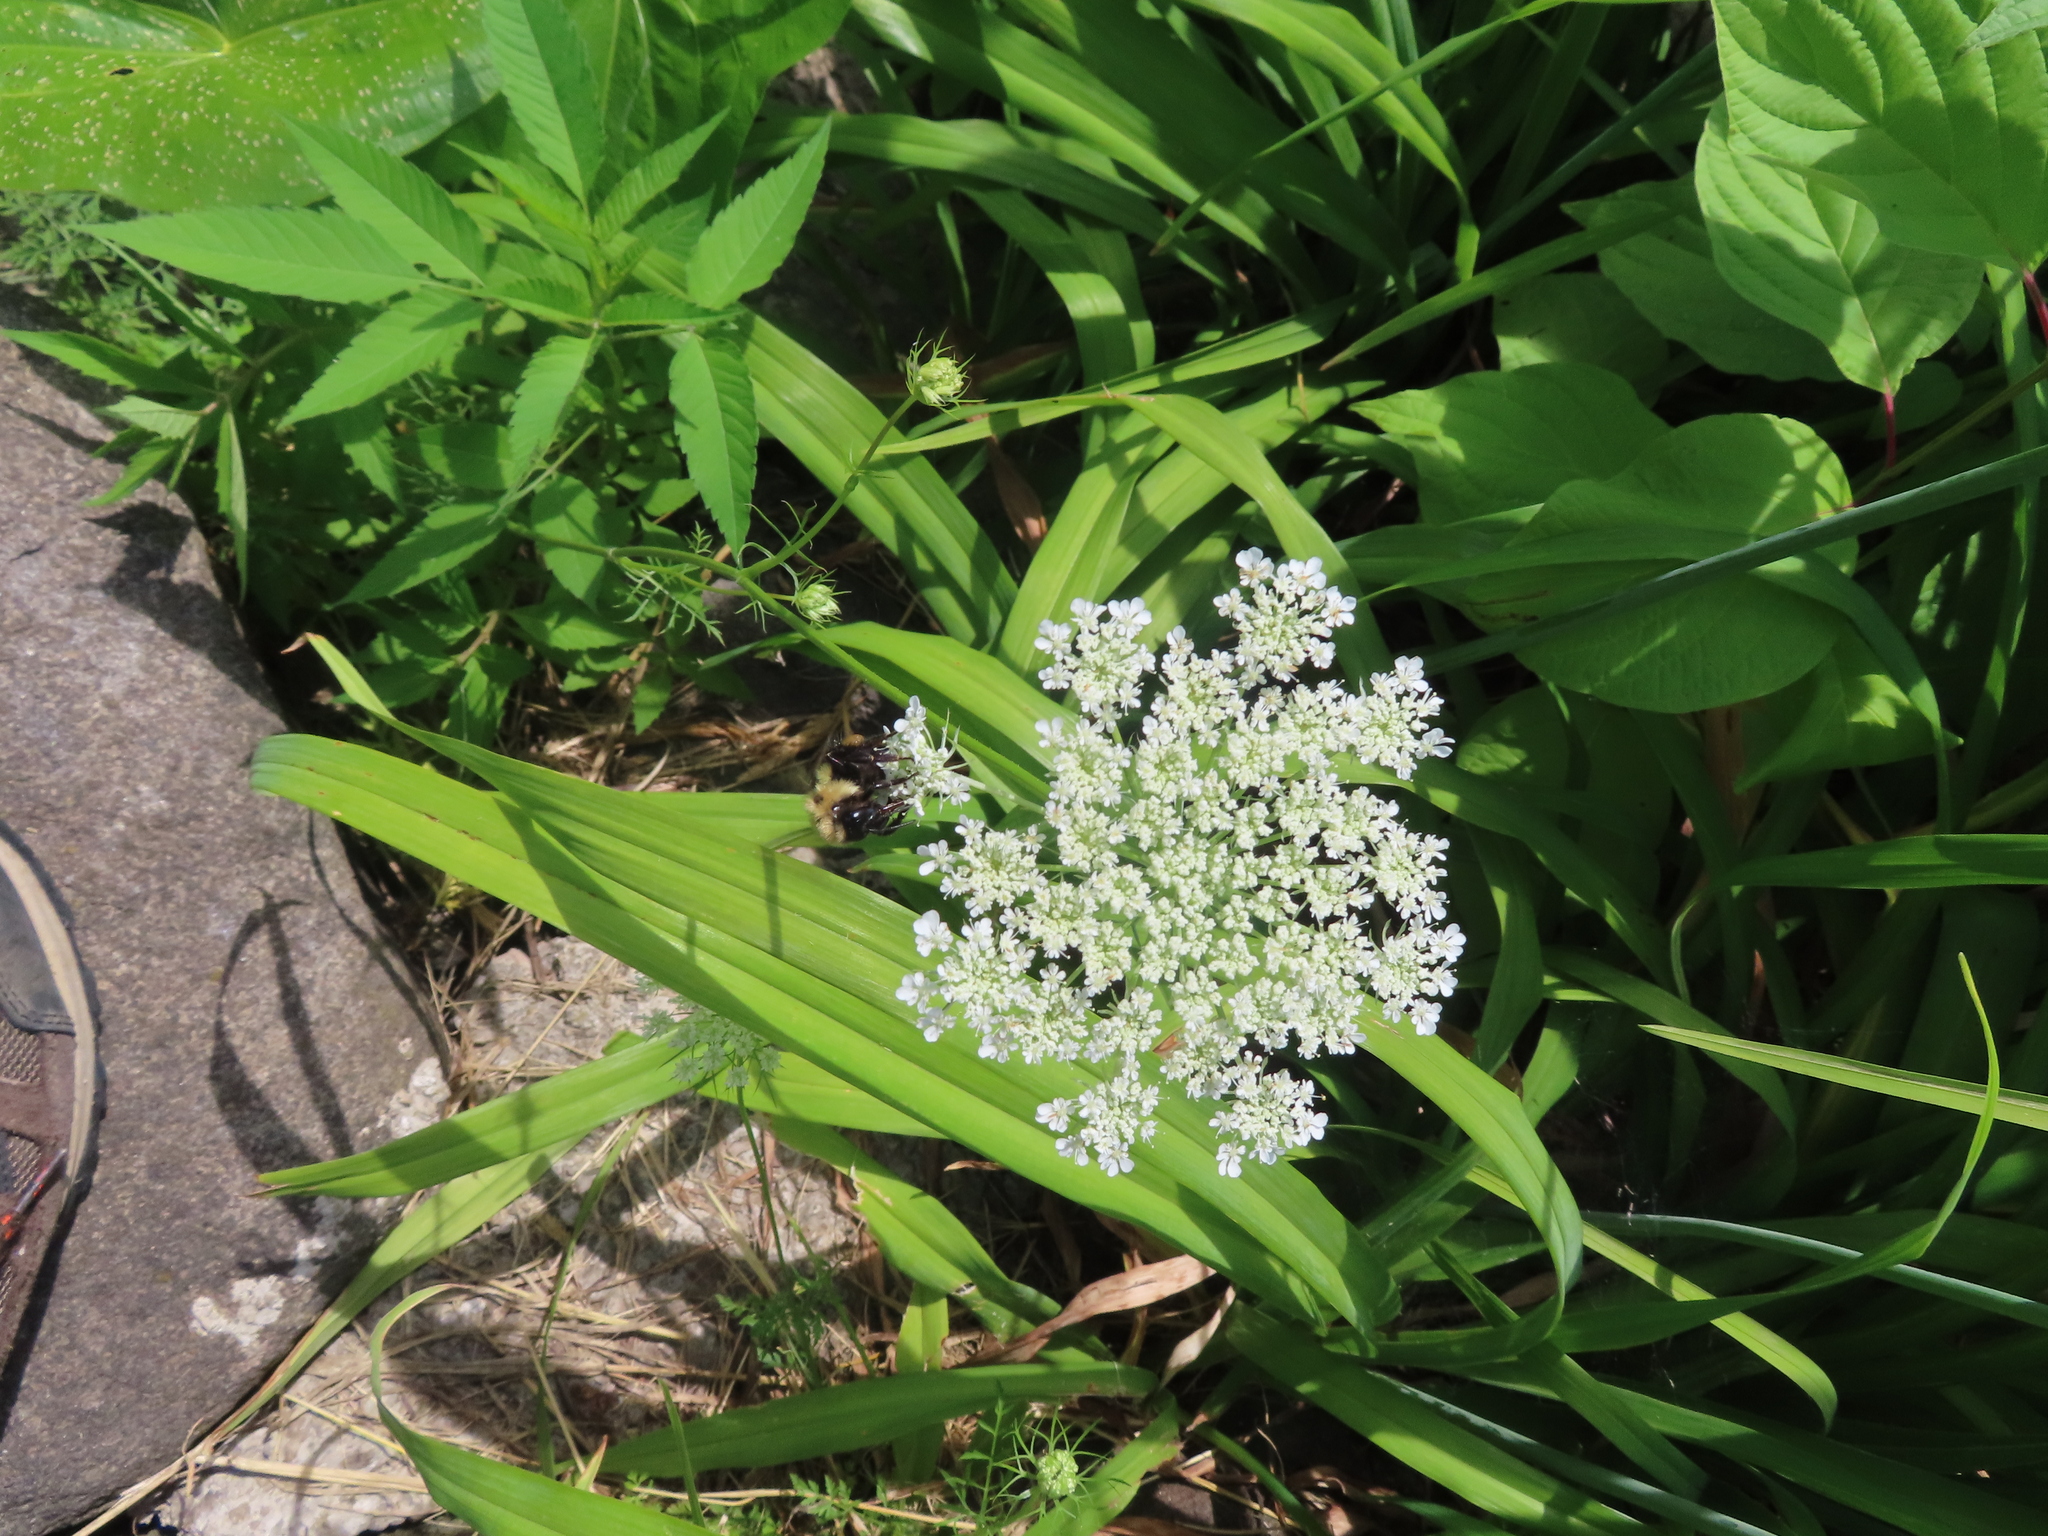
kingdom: Animalia
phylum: Arthropoda
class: Insecta
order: Hymenoptera
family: Apidae
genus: Bombus
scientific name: Bombus bimaculatus
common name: Two-spotted bumble bee
